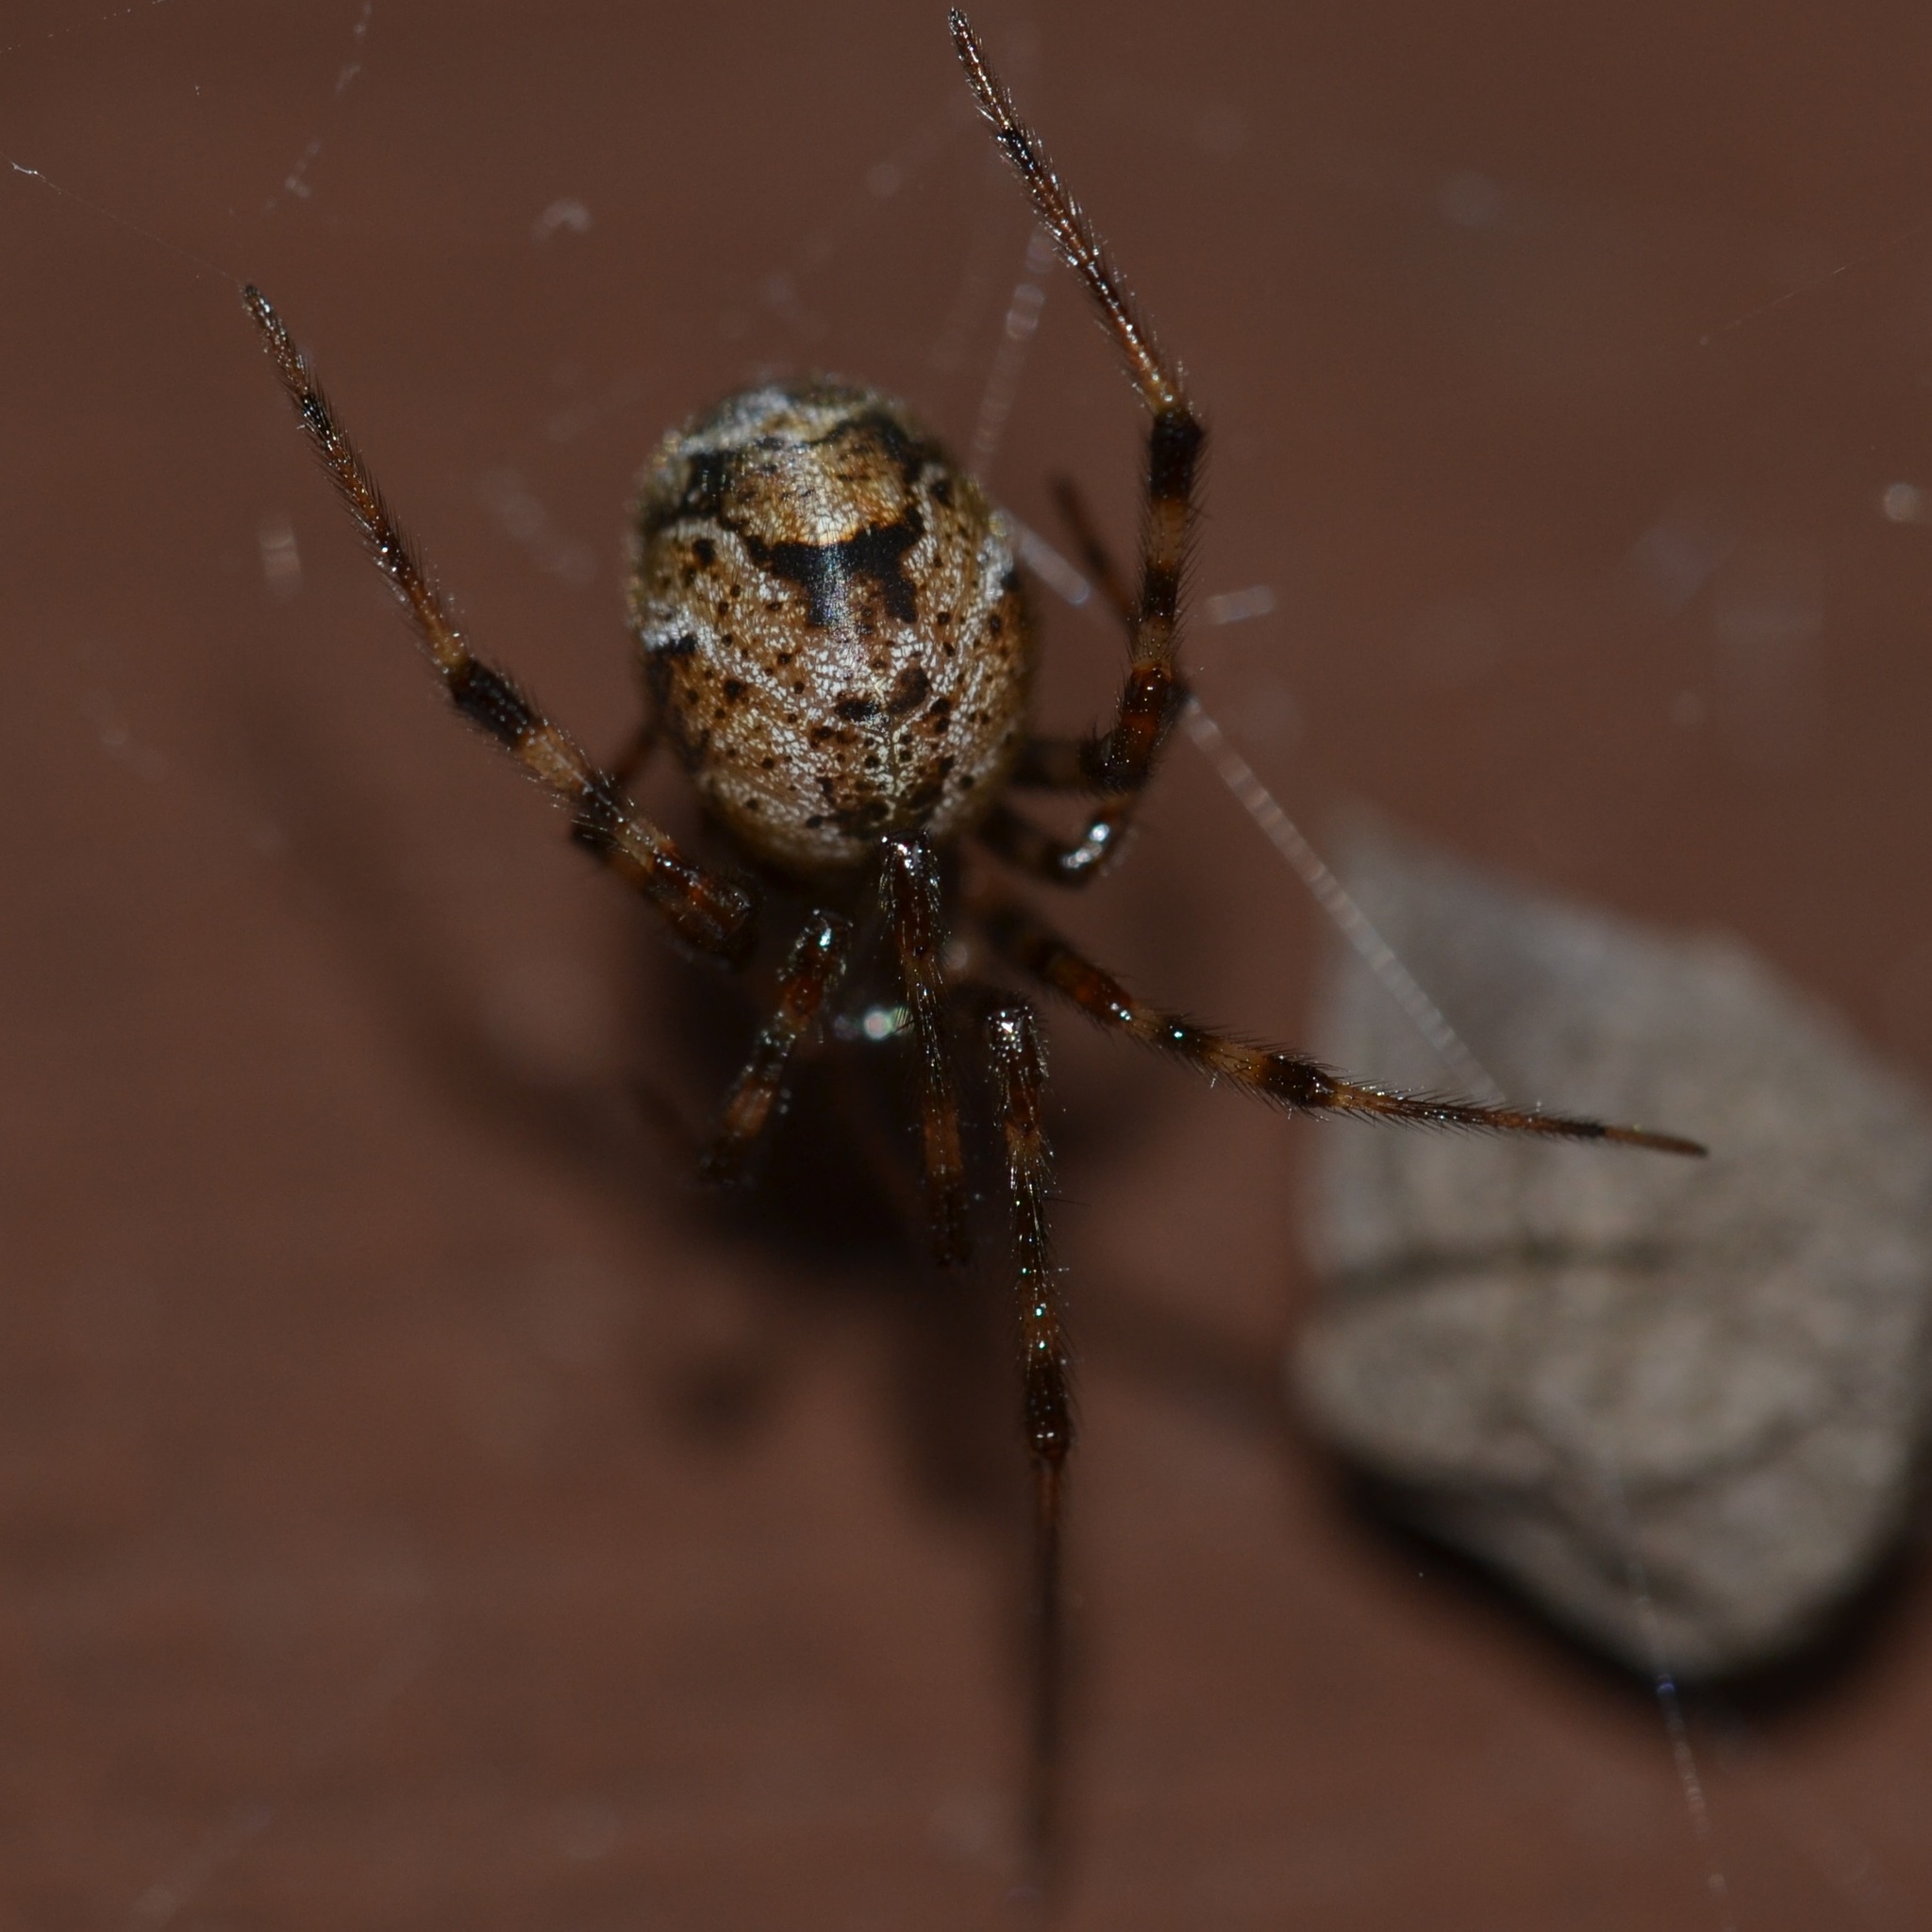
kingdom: Animalia
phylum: Arthropoda
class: Arachnida
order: Araneae
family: Theridiidae
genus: Parasteatoda
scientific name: Parasteatoda tepidariorum
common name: Common house spider
